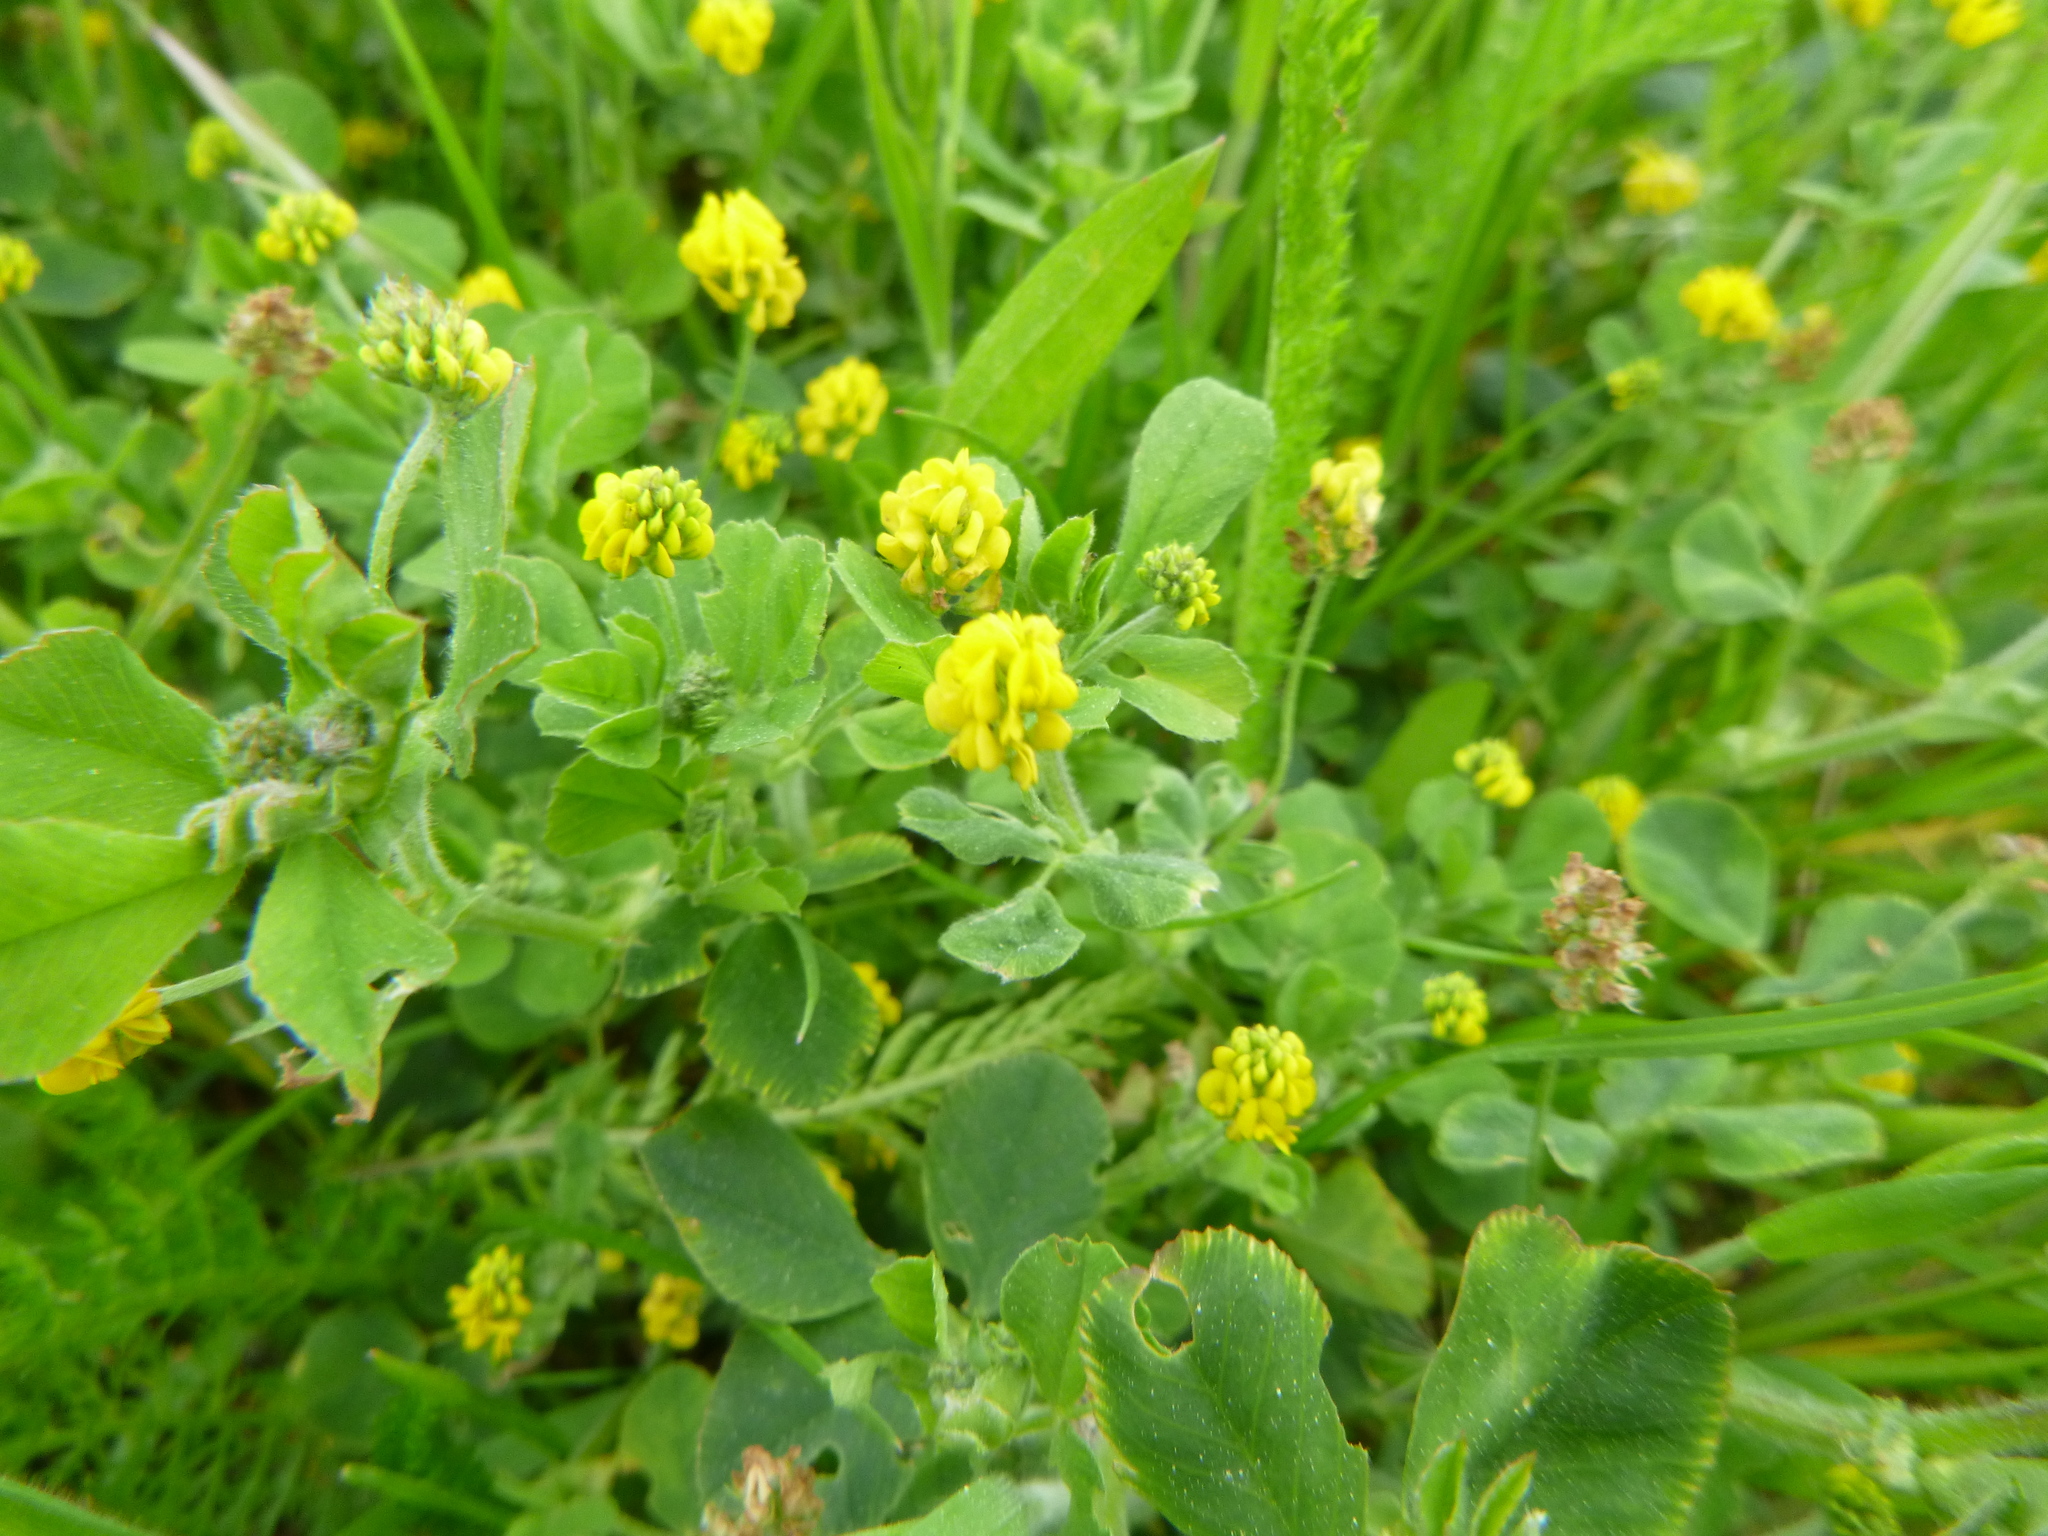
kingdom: Plantae
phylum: Tracheophyta
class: Magnoliopsida
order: Fabales
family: Fabaceae
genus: Medicago
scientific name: Medicago lupulina
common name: Black medick
